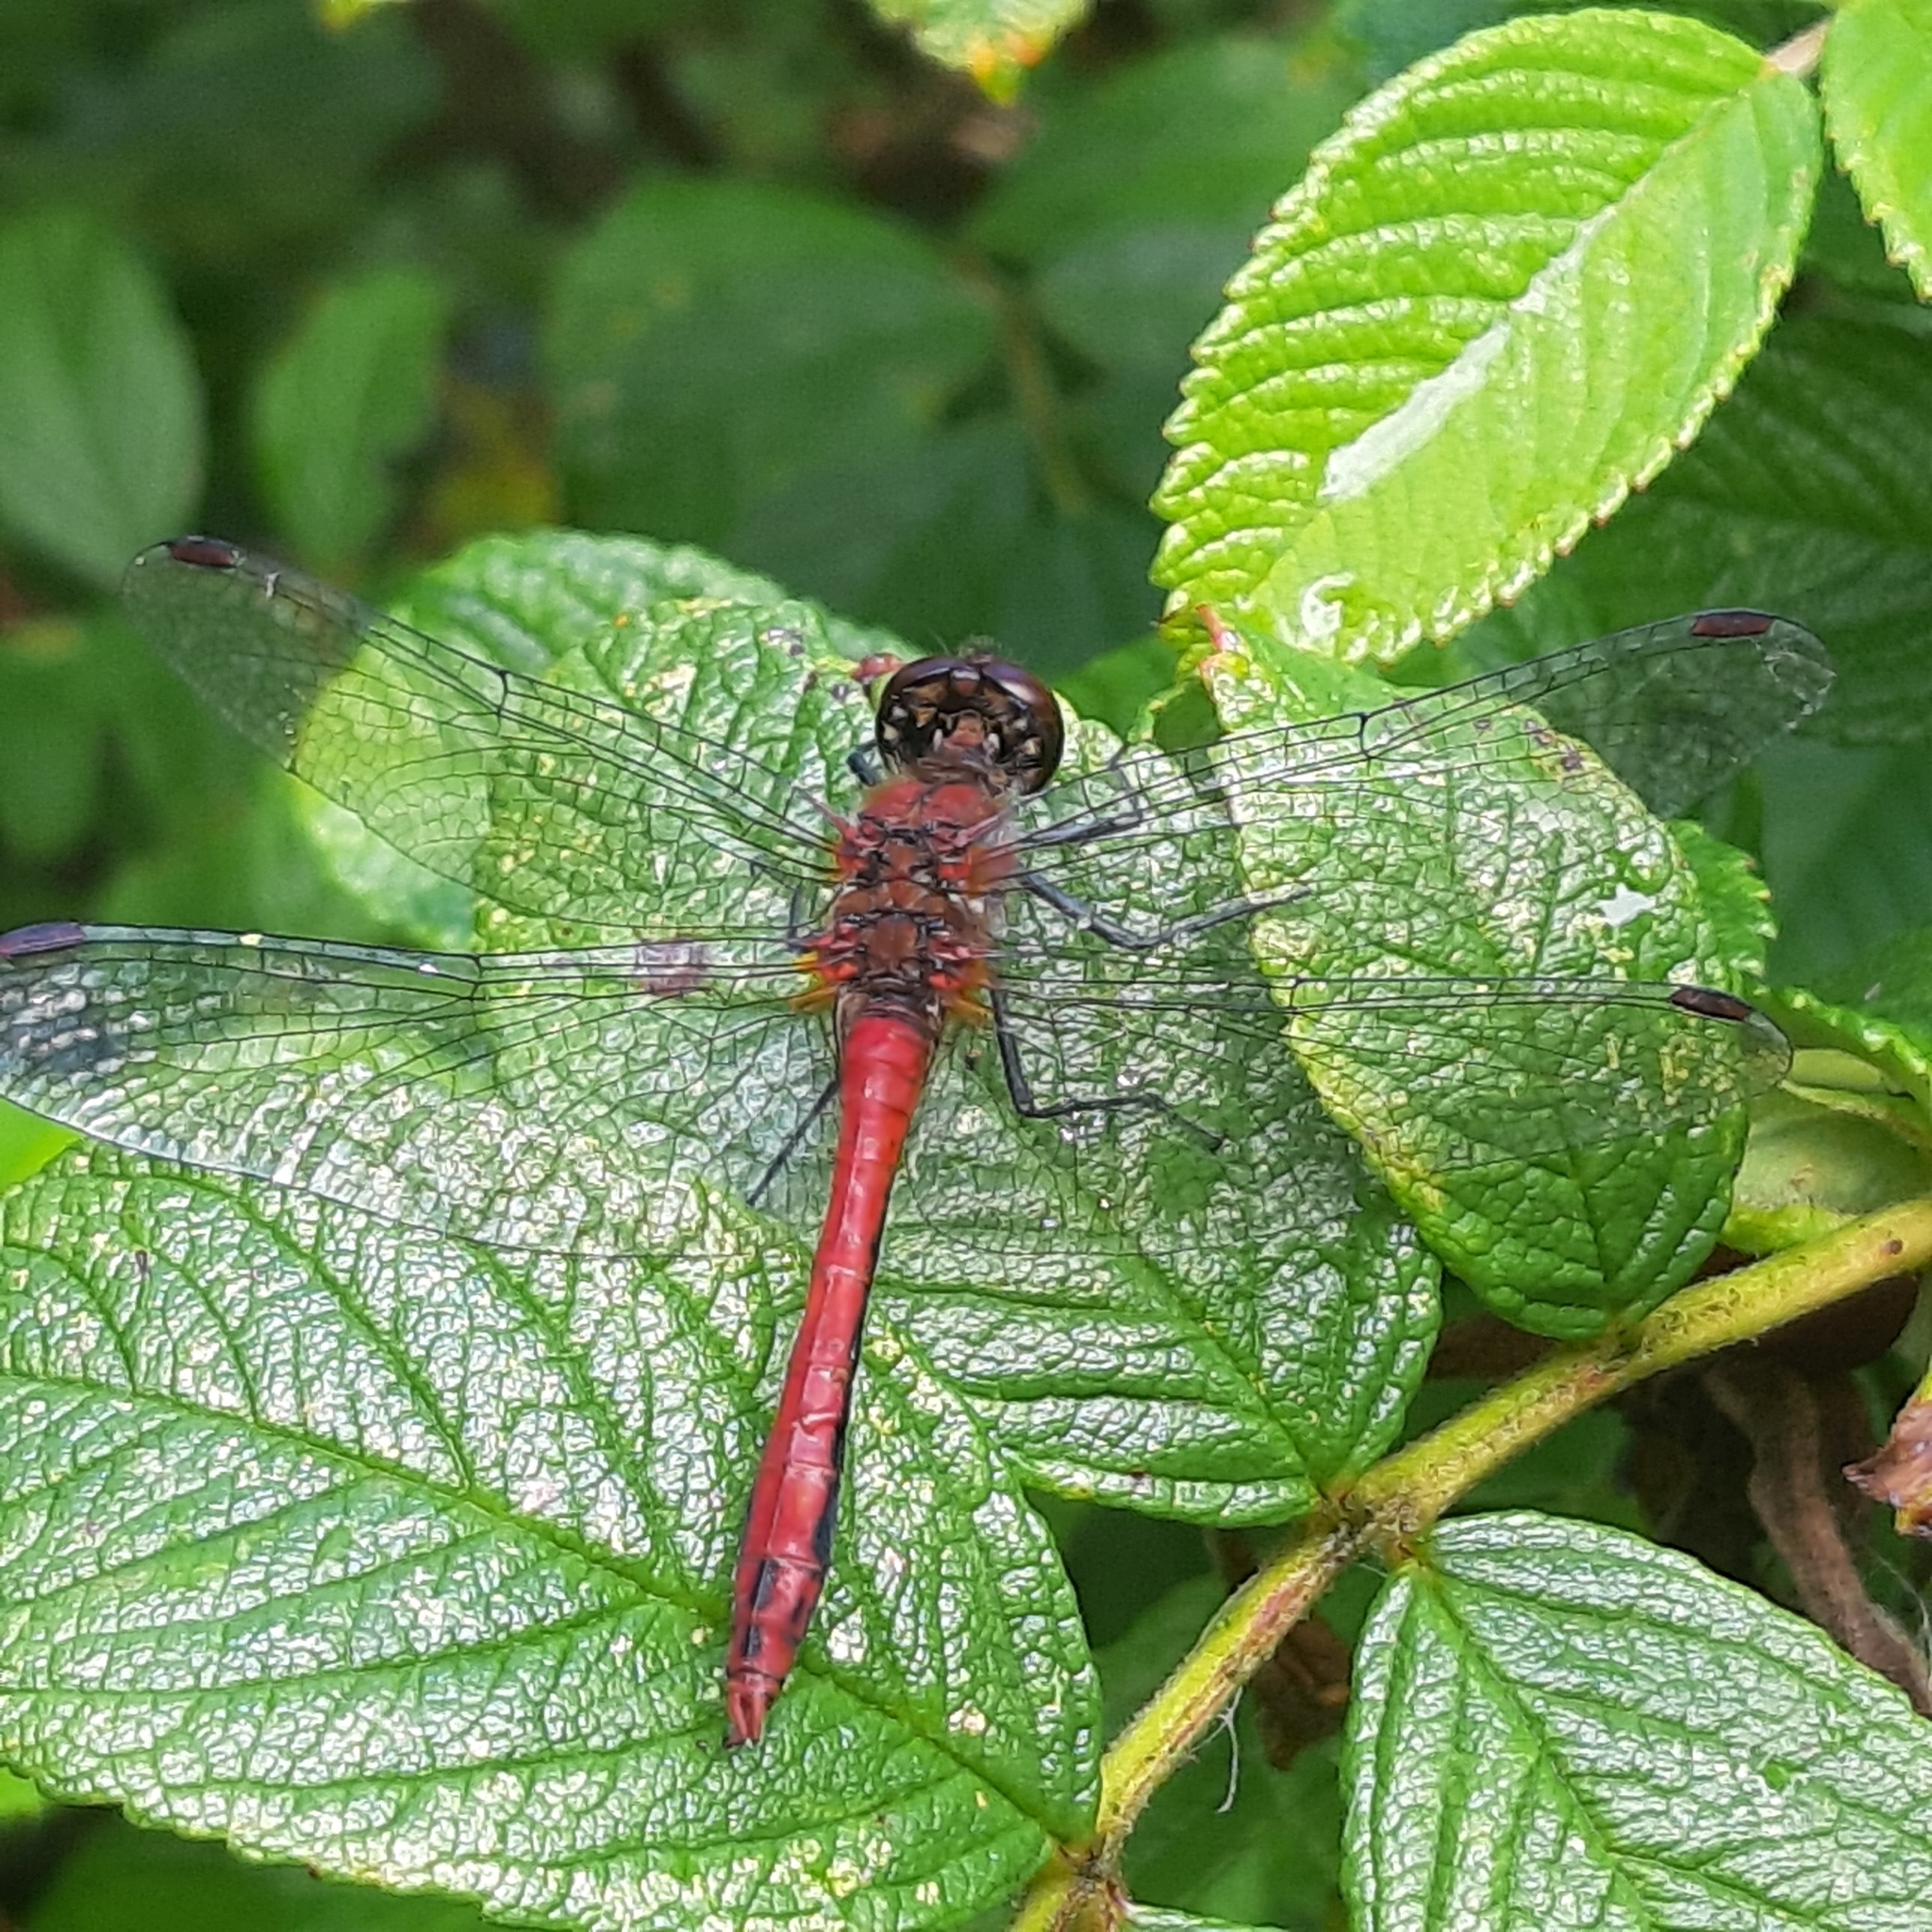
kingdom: Animalia
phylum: Arthropoda
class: Insecta
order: Odonata
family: Libellulidae
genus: Sympetrum
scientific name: Sympetrum sanguineum
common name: Ruddy darter
